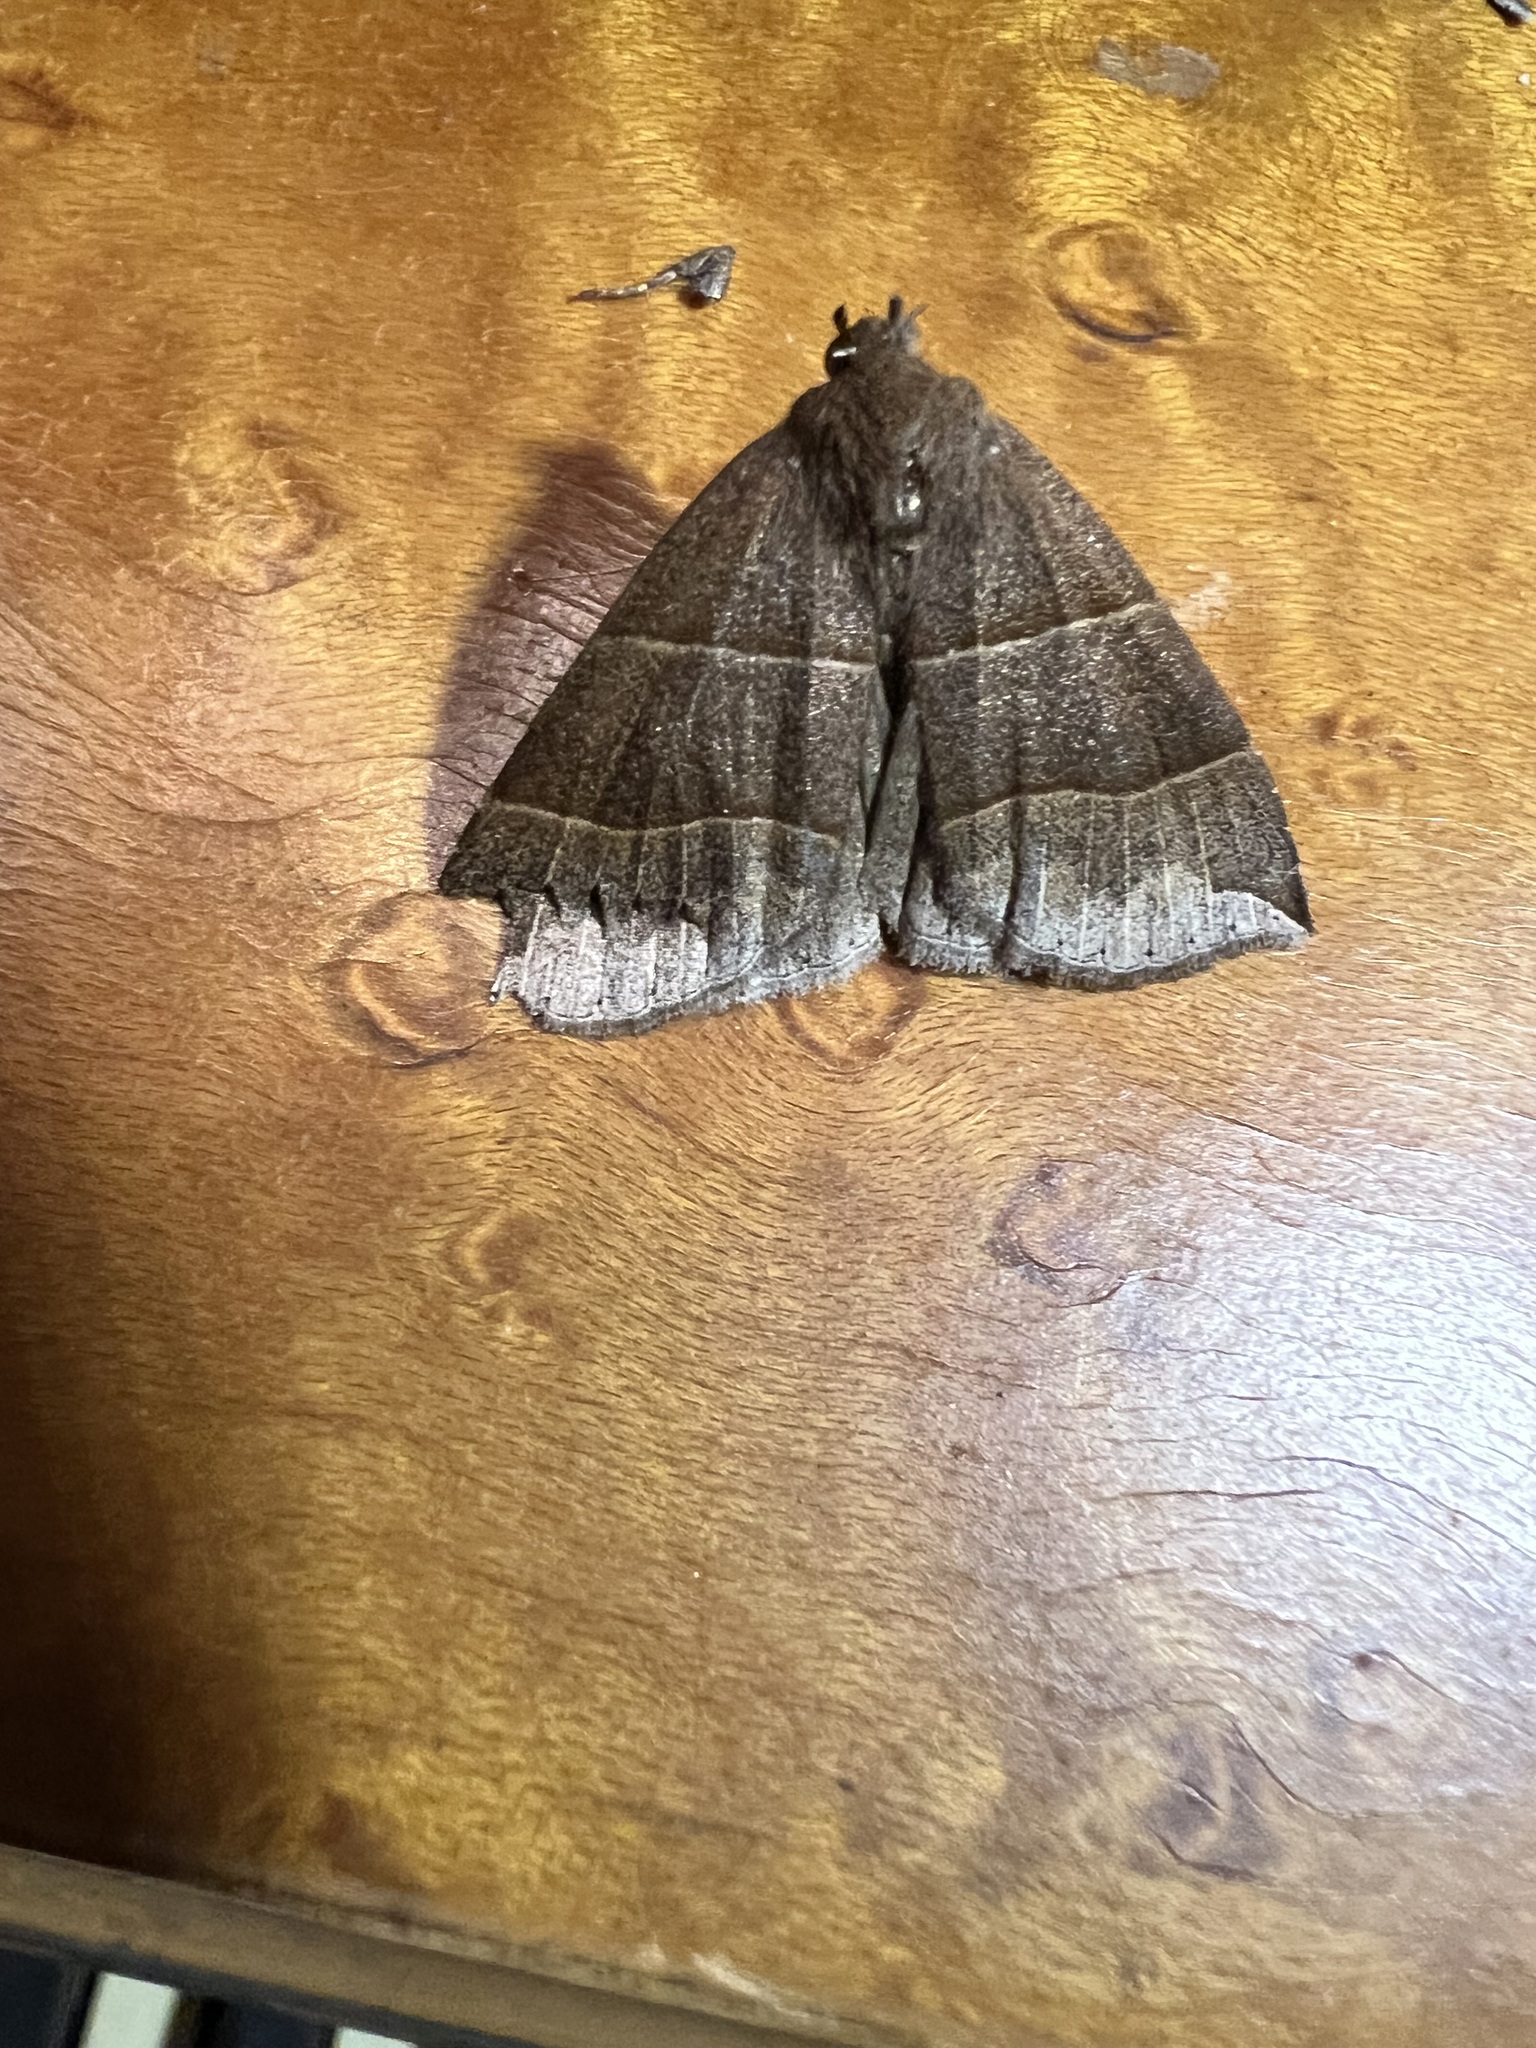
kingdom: Animalia
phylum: Arthropoda
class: Insecta
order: Lepidoptera
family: Erebidae
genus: Parallelia
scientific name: Parallelia bistriaris
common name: Maple looper moth
